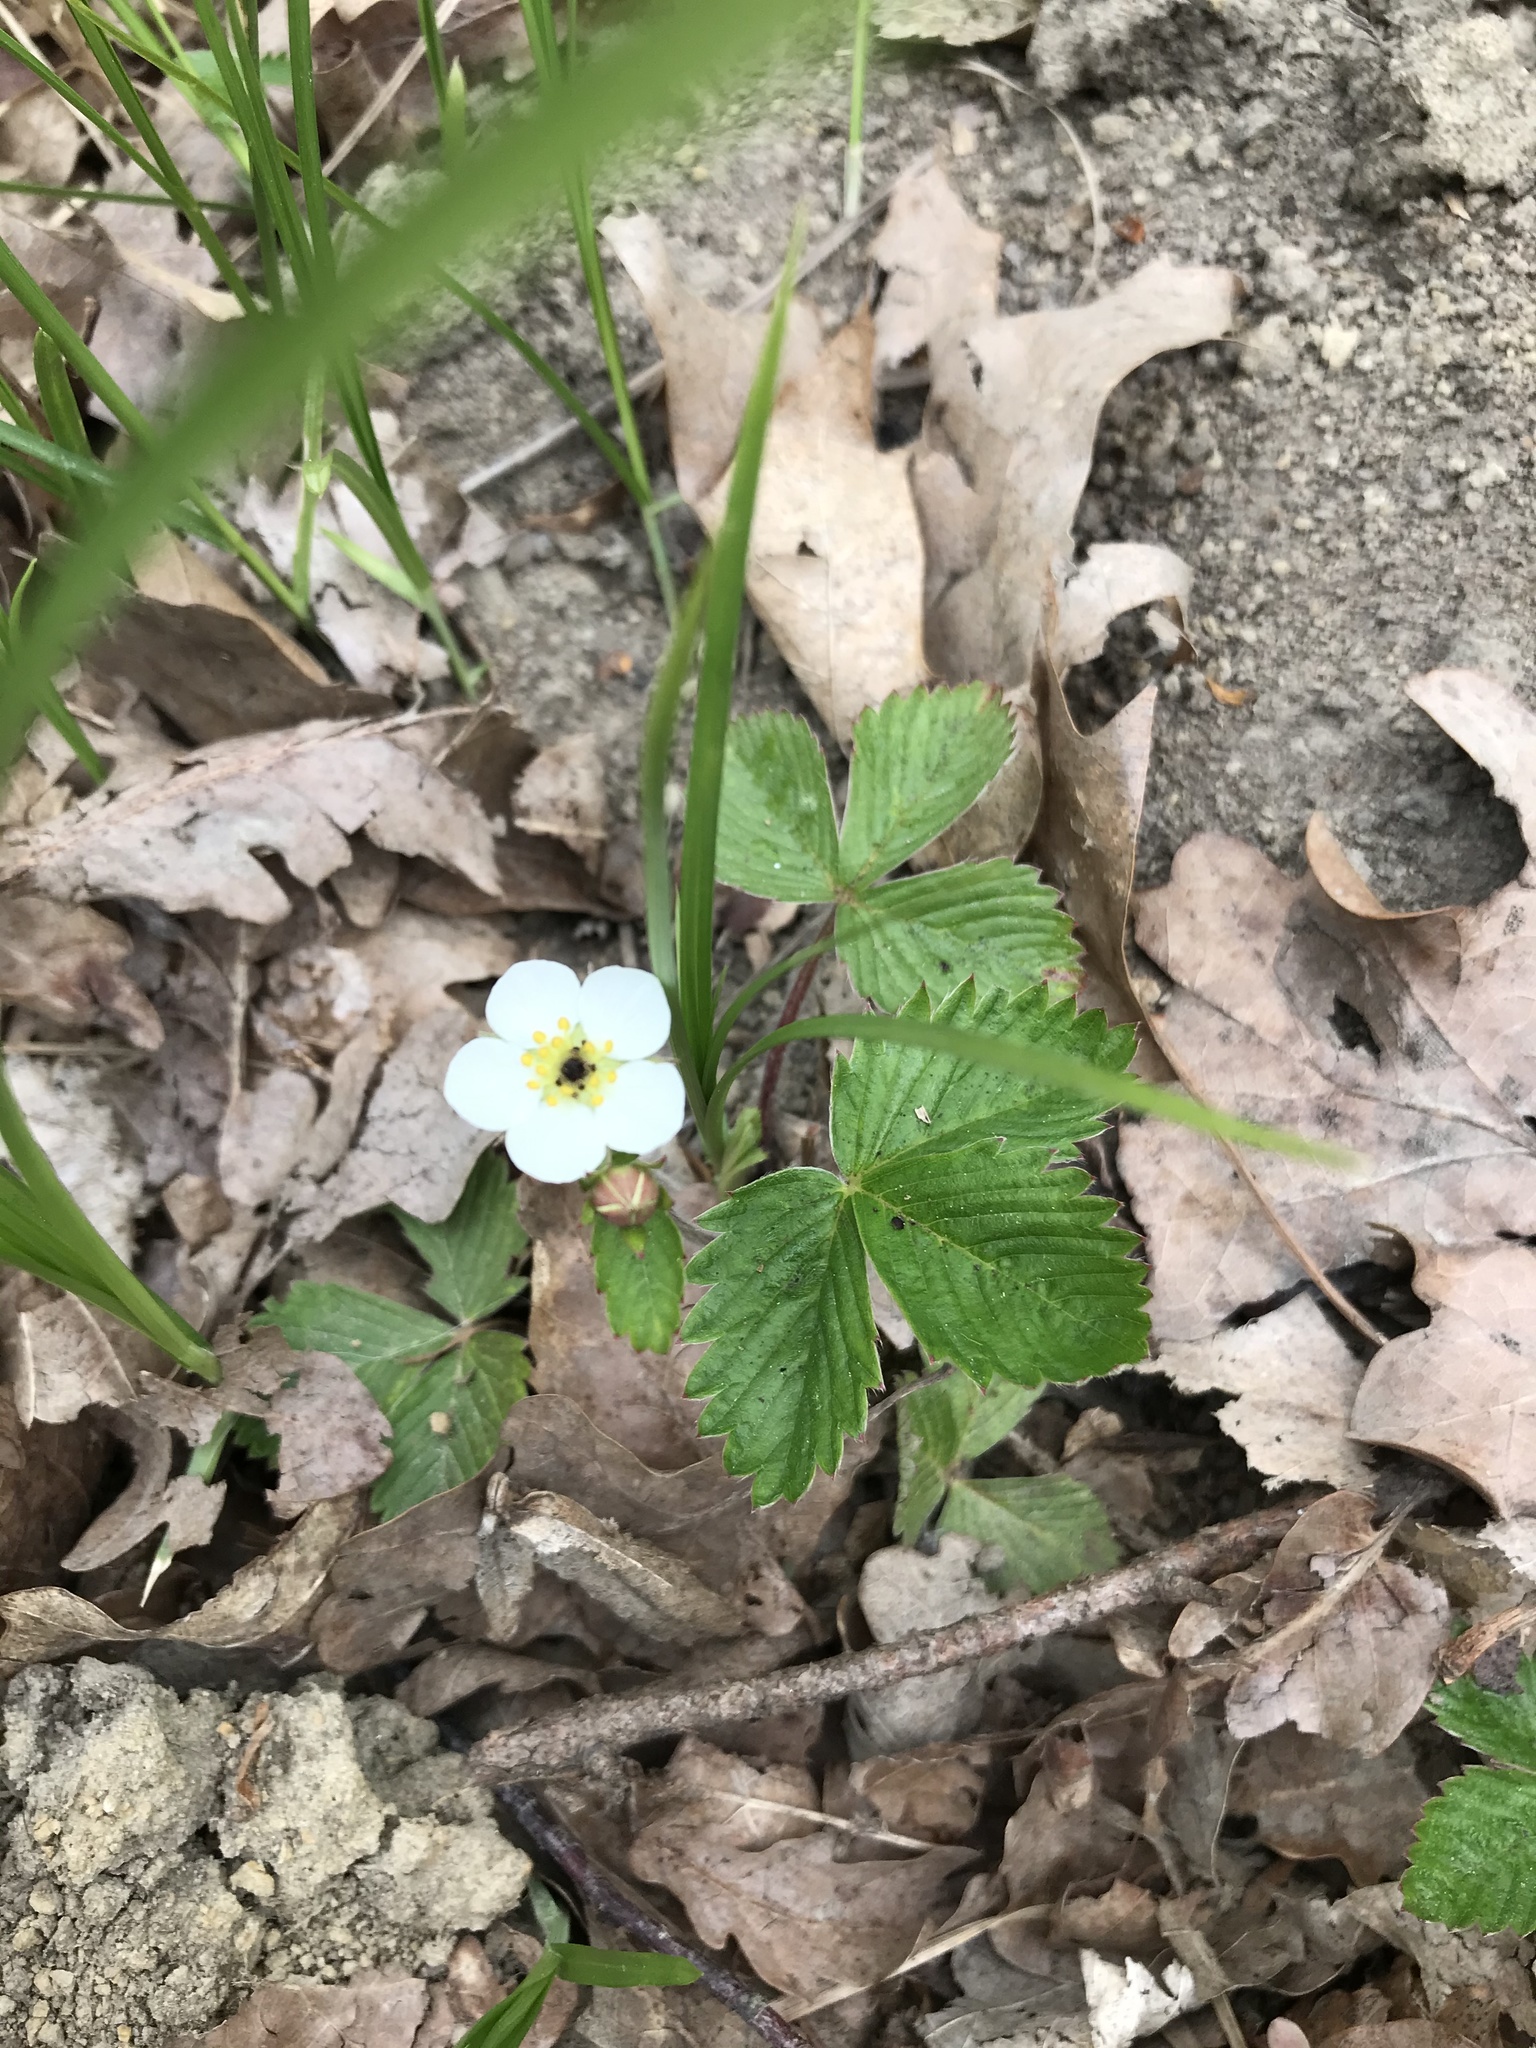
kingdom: Plantae
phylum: Tracheophyta
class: Magnoliopsida
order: Rosales
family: Rosaceae
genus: Fragaria
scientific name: Fragaria vesca
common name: Wild strawberry
